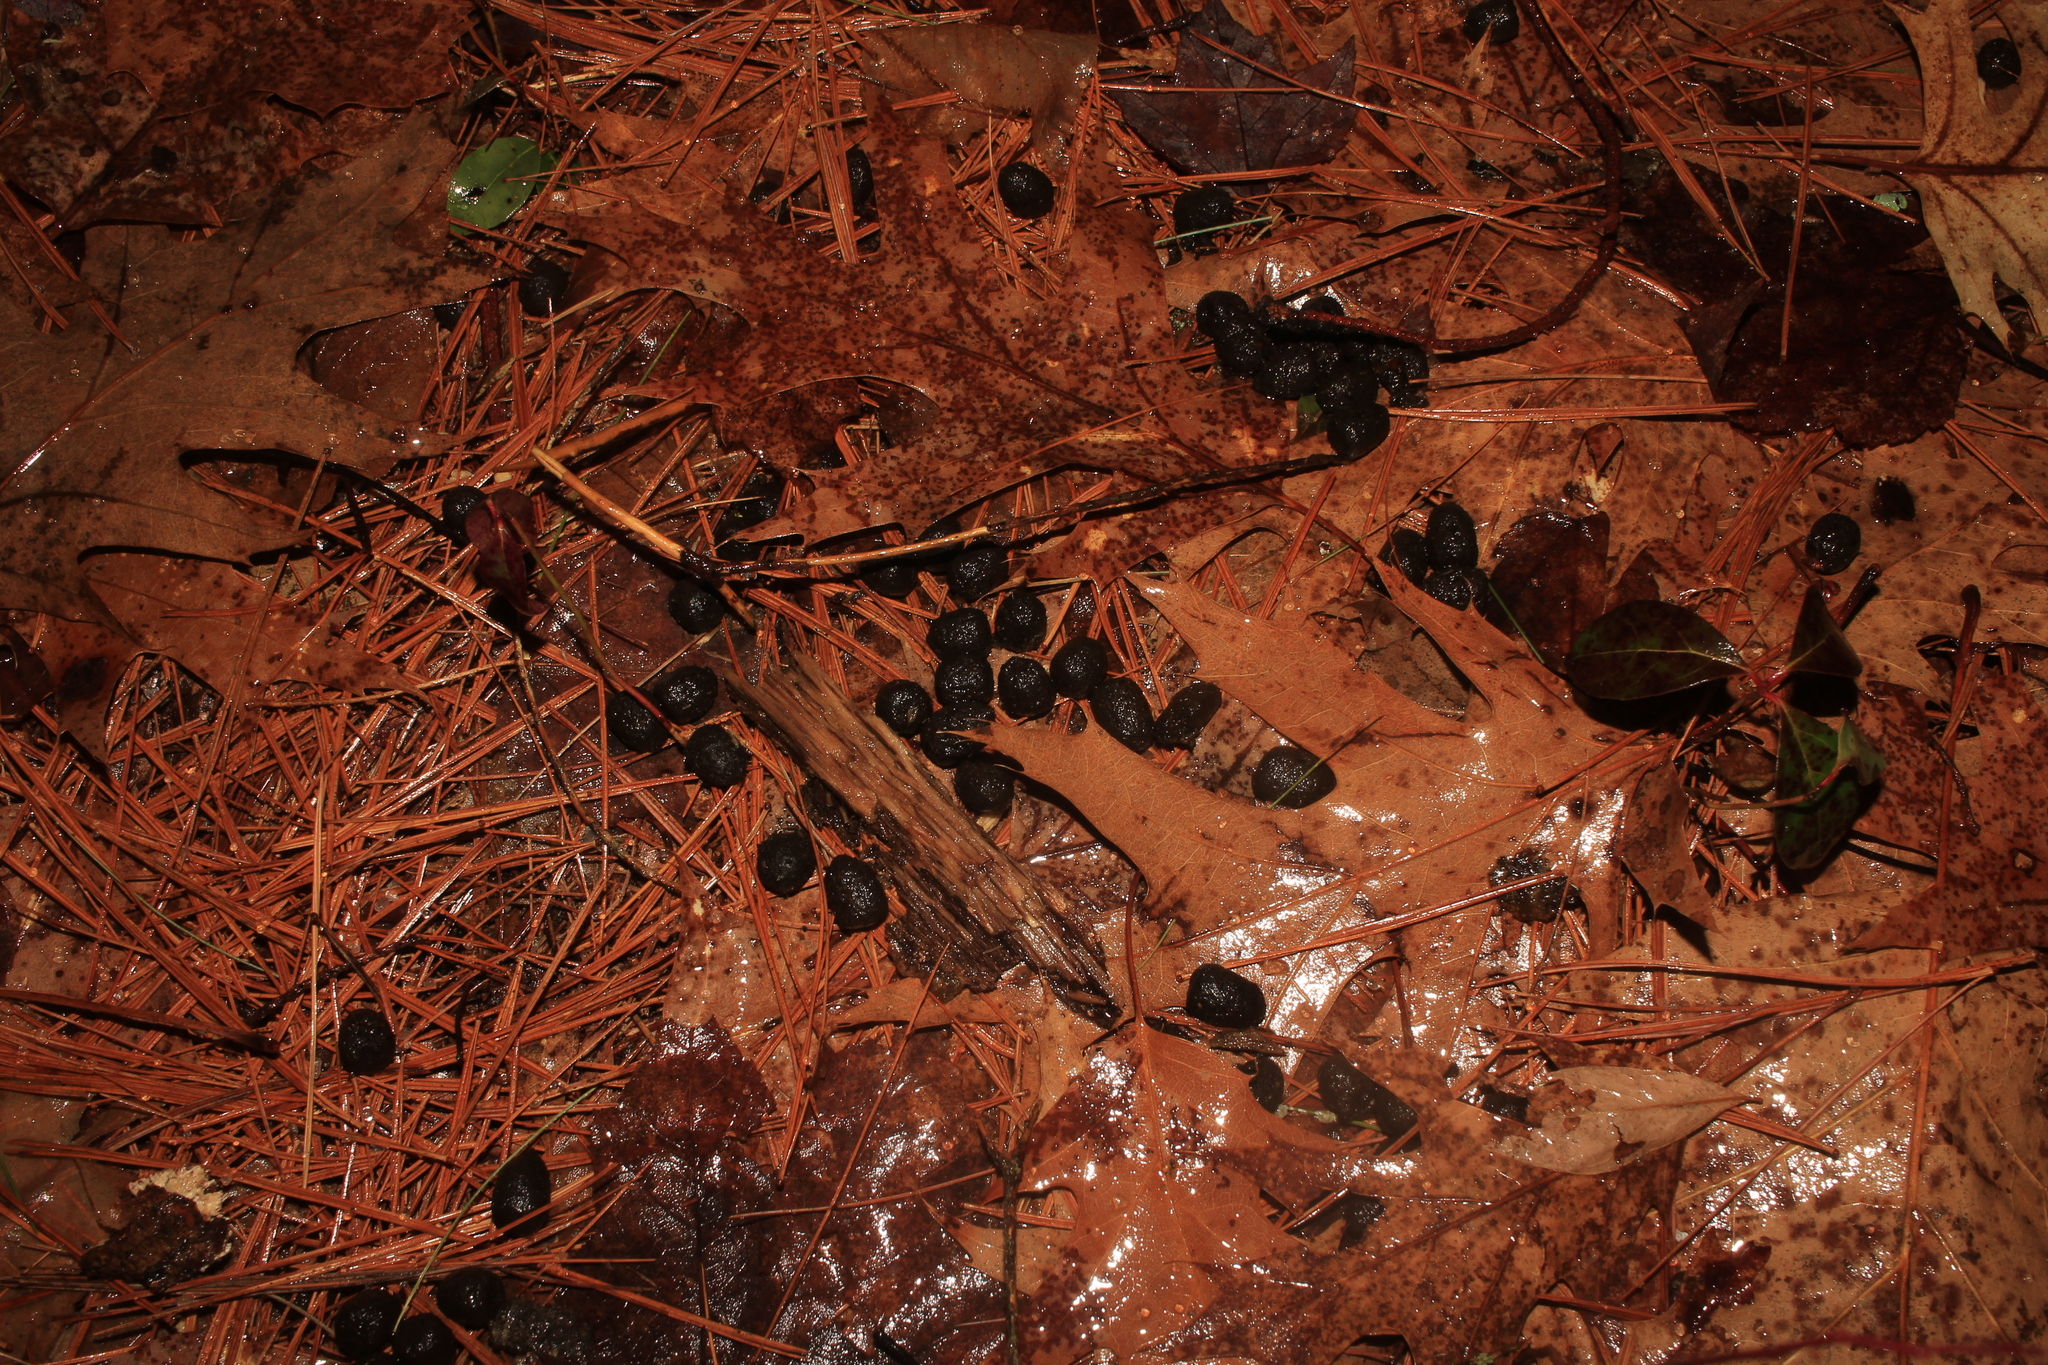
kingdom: Animalia
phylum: Chordata
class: Mammalia
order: Artiodactyla
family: Cervidae
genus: Odocoileus
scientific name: Odocoileus virginianus
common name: White-tailed deer
